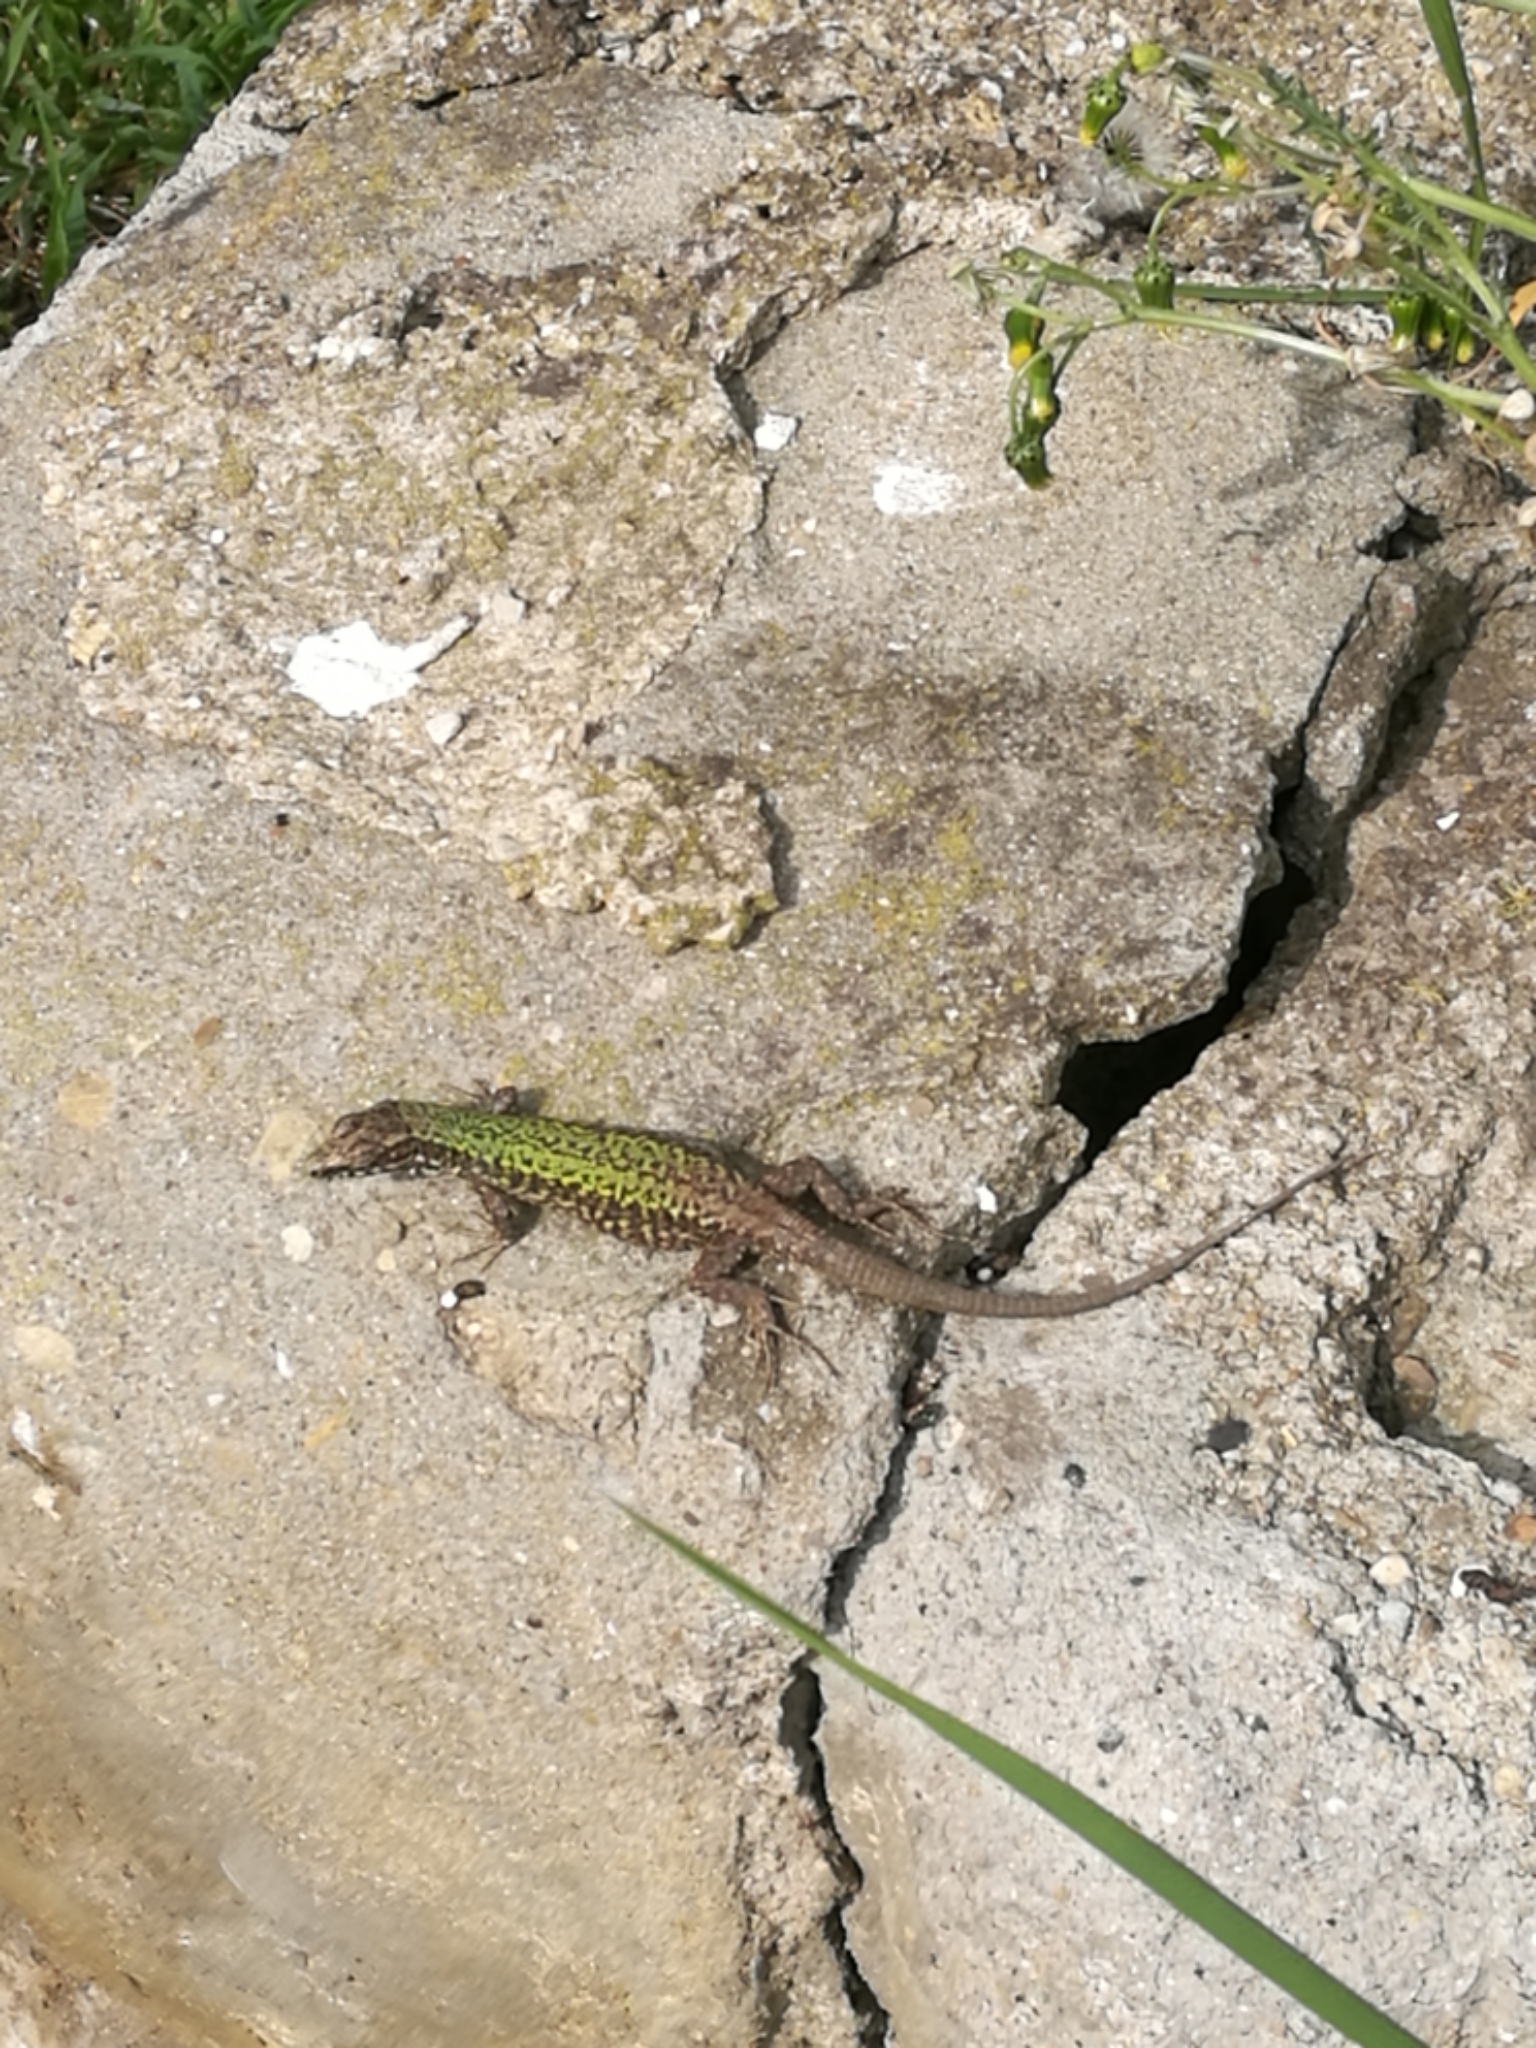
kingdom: Animalia
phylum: Chordata
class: Squamata
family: Lacertidae
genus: Podarcis
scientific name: Podarcis muralis
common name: Common wall lizard
